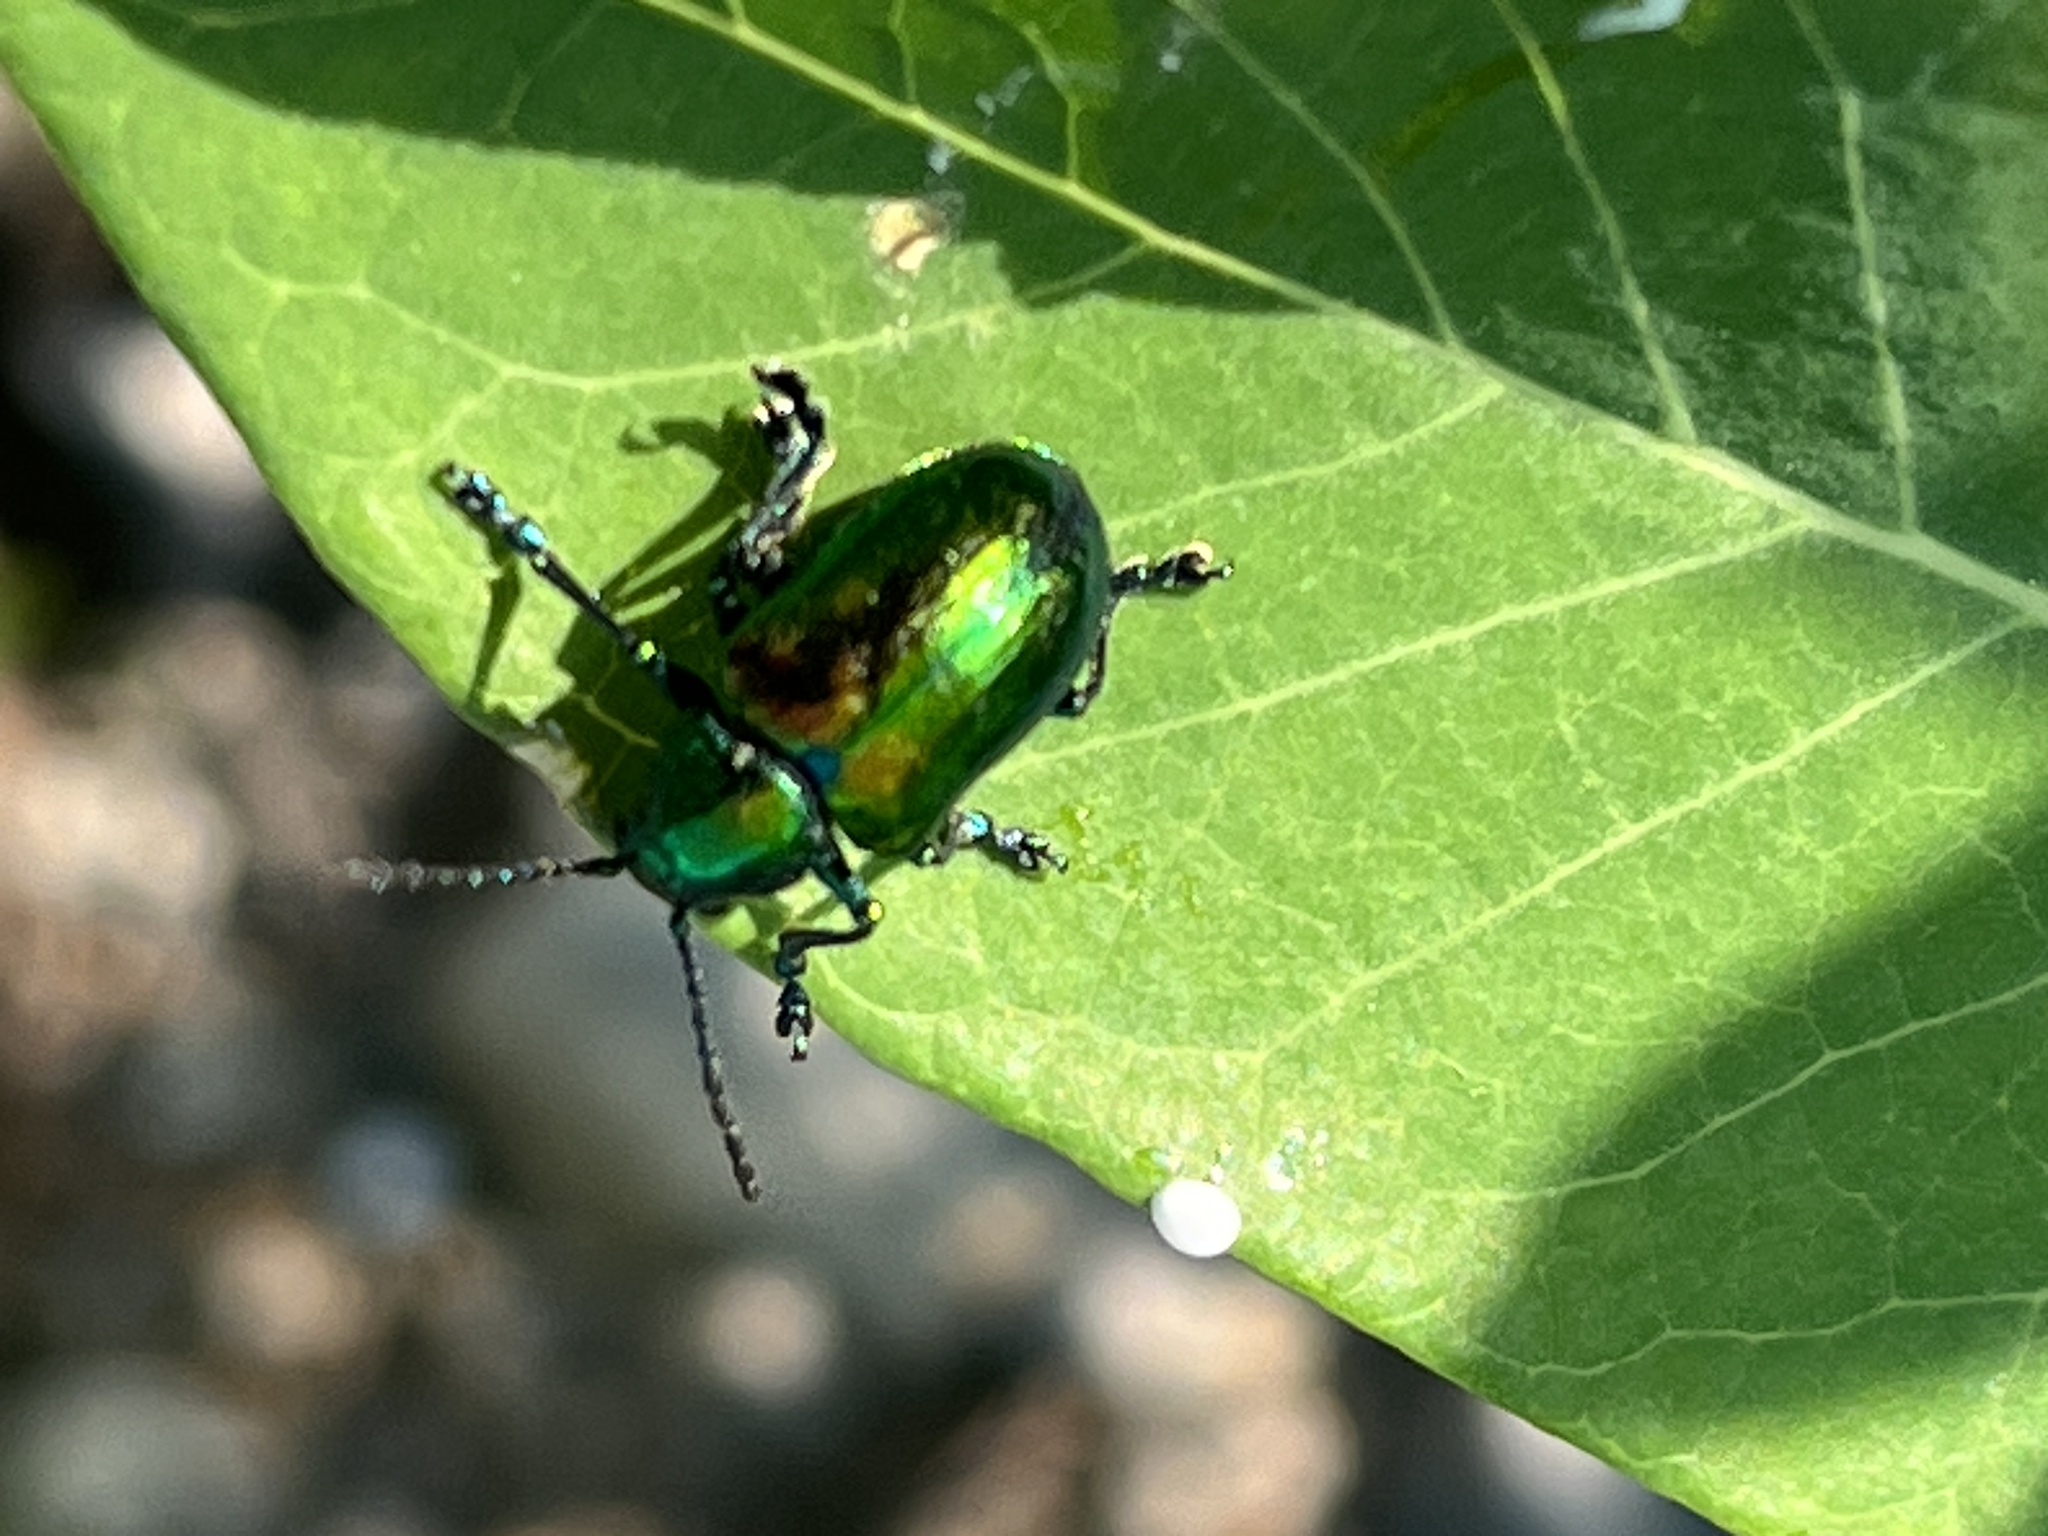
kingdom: Animalia
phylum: Arthropoda
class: Insecta
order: Coleoptera
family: Chrysomelidae
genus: Chrysochus
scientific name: Chrysochus auratus
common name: Dogbane leaf beetle
